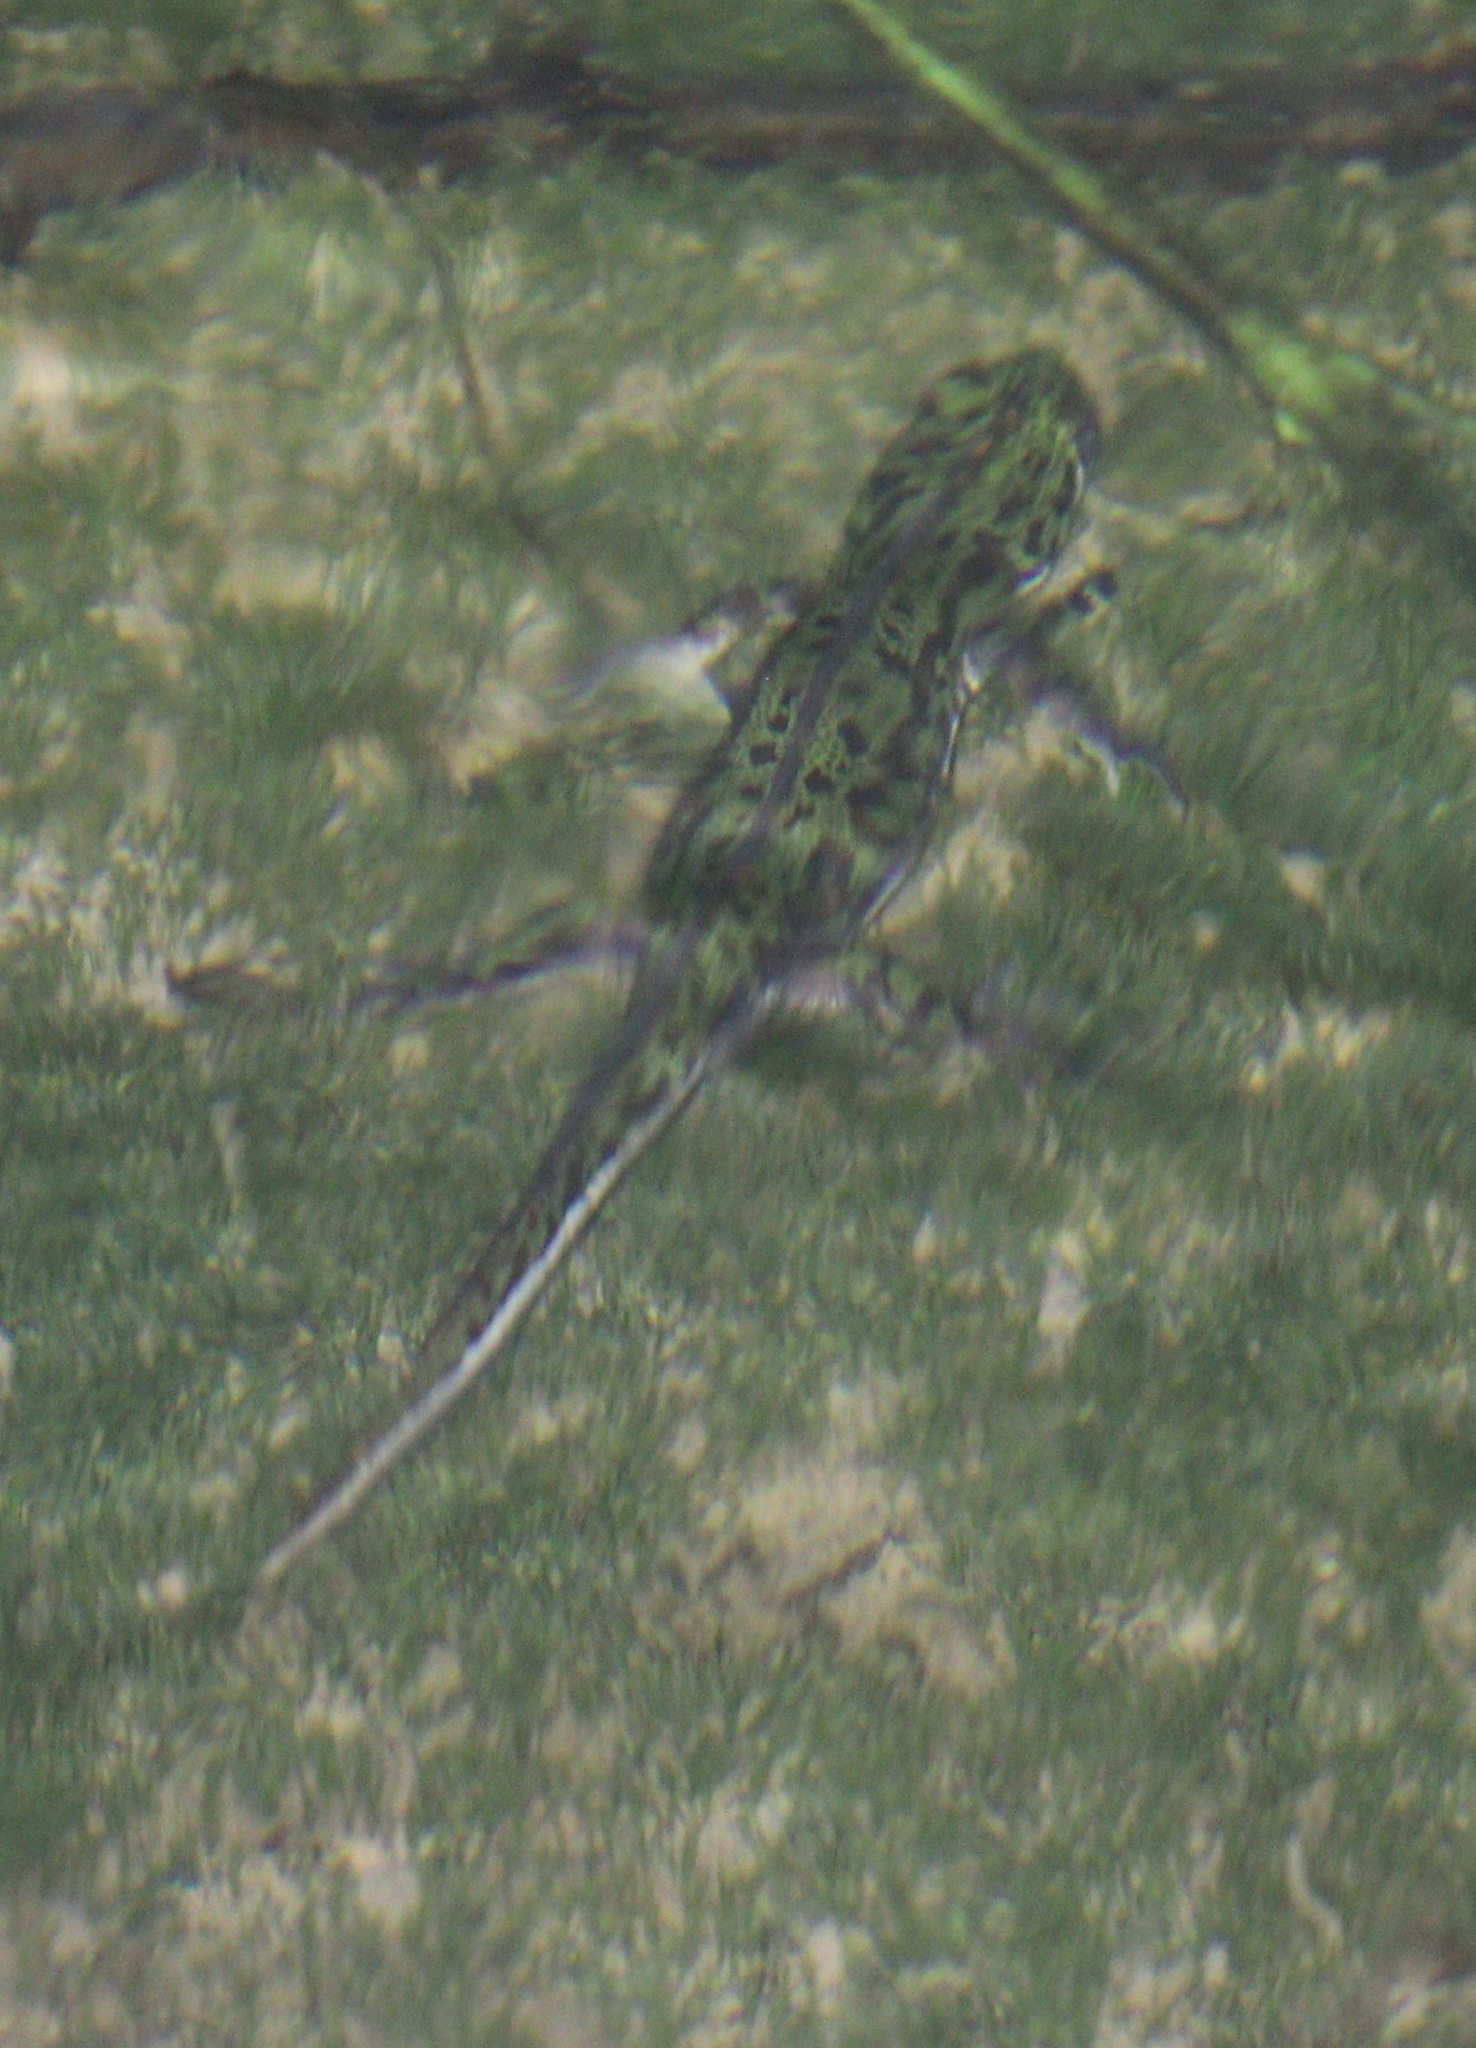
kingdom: Animalia
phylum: Chordata
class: Amphibia
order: Caudata
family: Salamandridae
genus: Triturus
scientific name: Triturus pygmaeus
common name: Southern marbled newt
